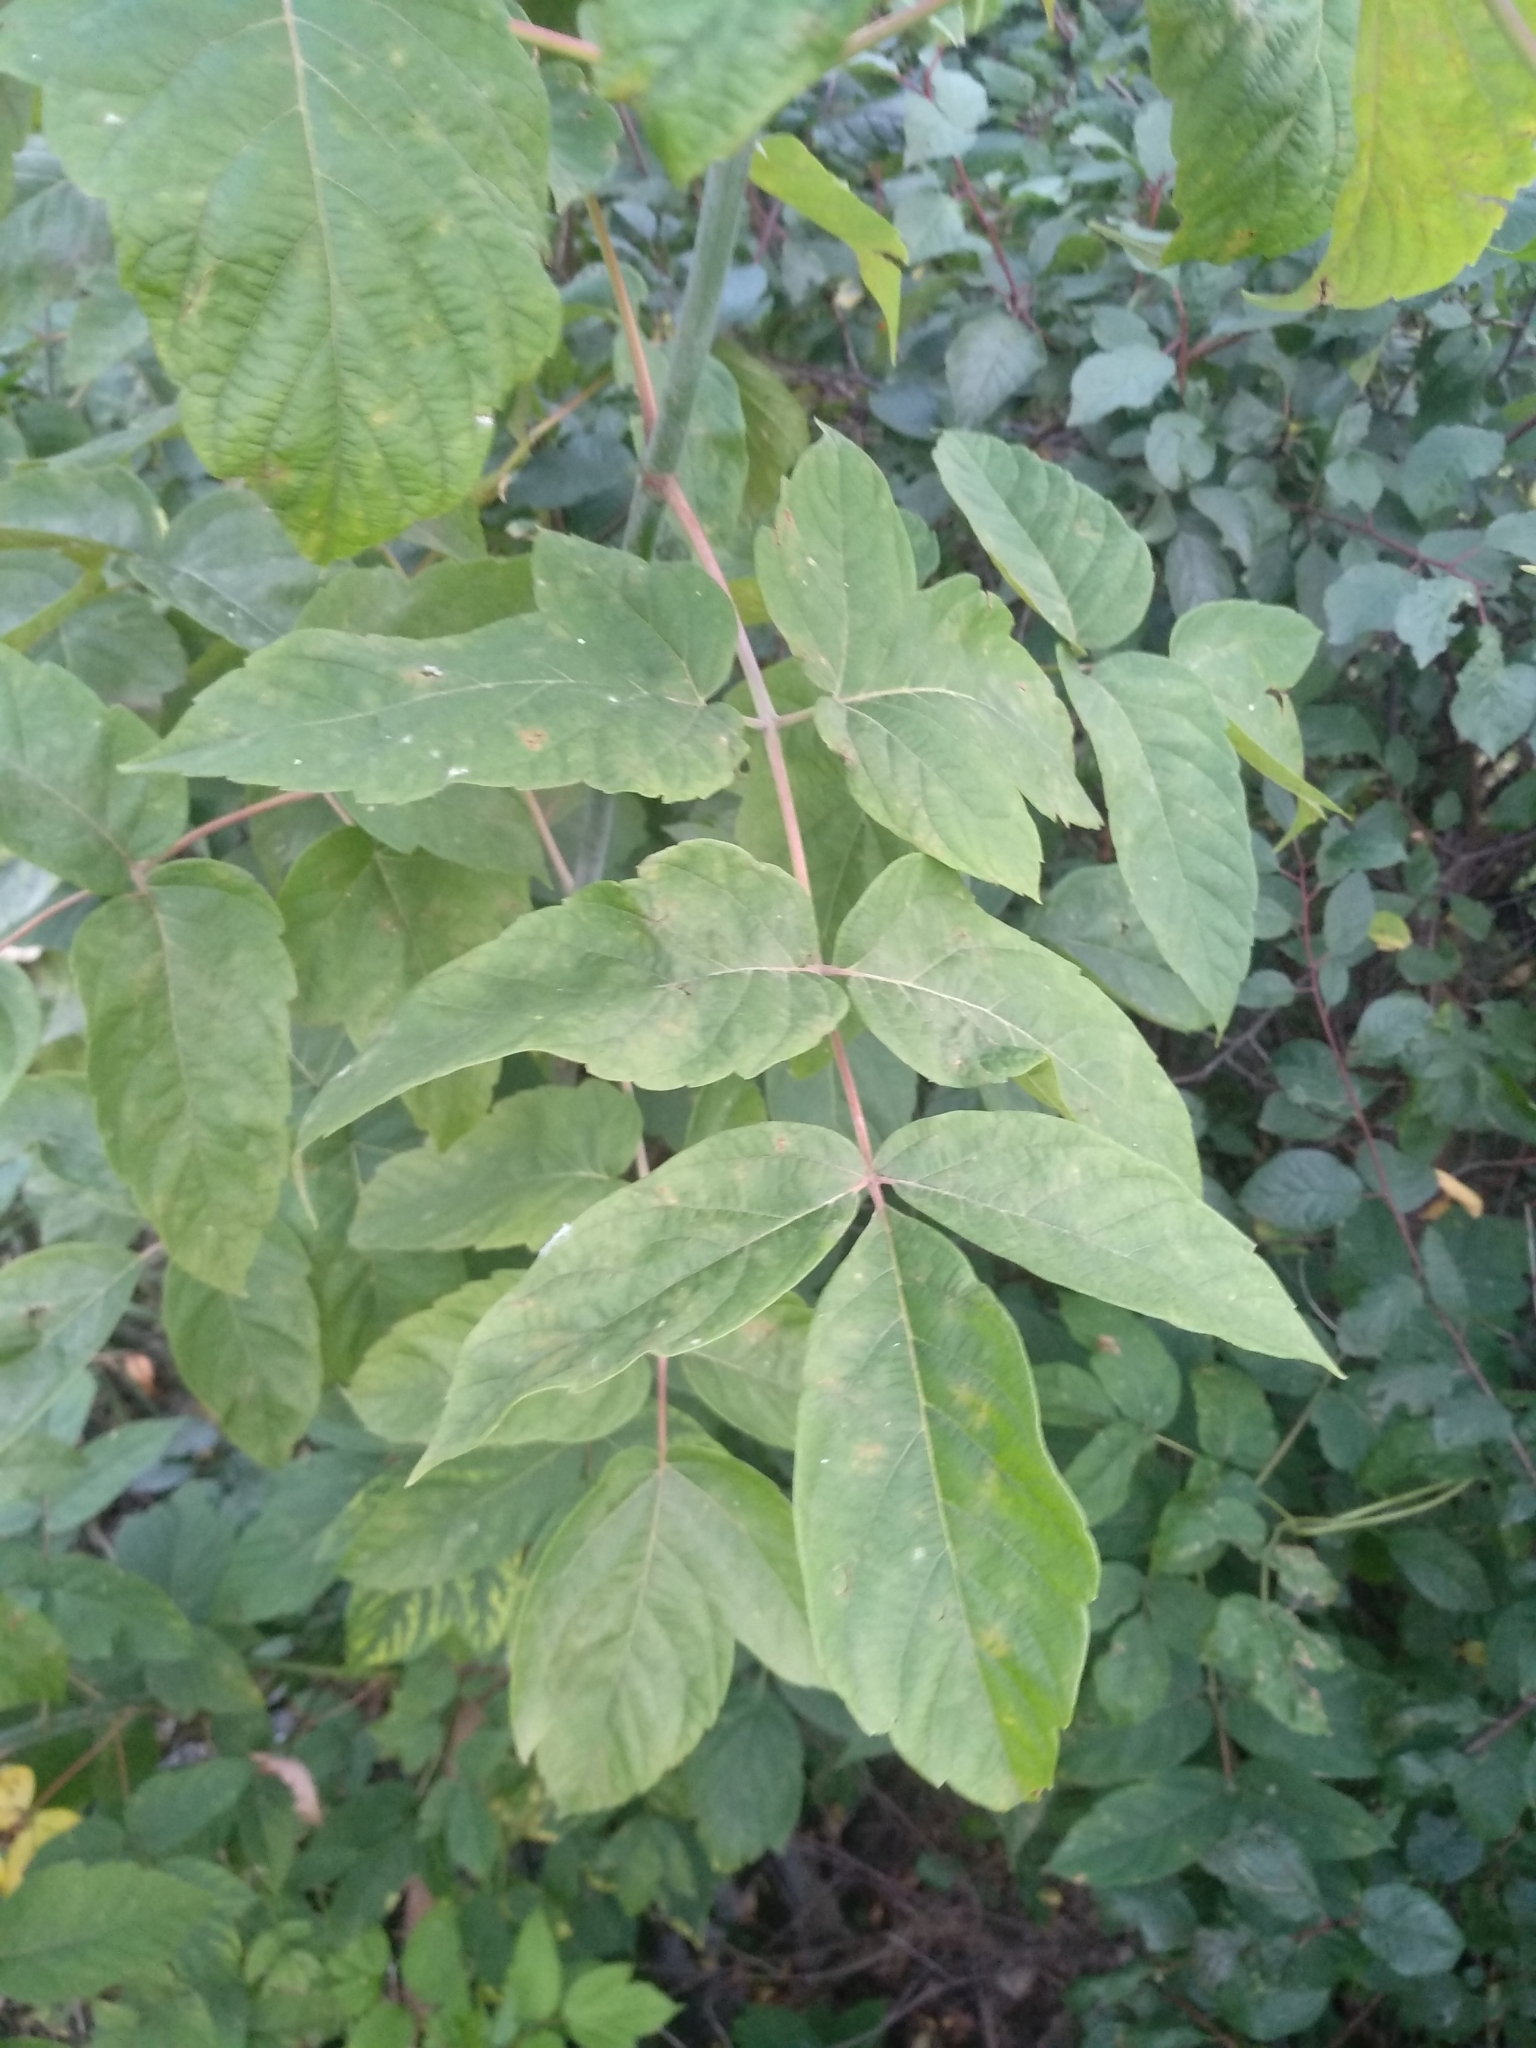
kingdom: Plantae
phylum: Tracheophyta
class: Magnoliopsida
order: Sapindales
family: Sapindaceae
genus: Acer
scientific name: Acer negundo
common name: Ashleaf maple
